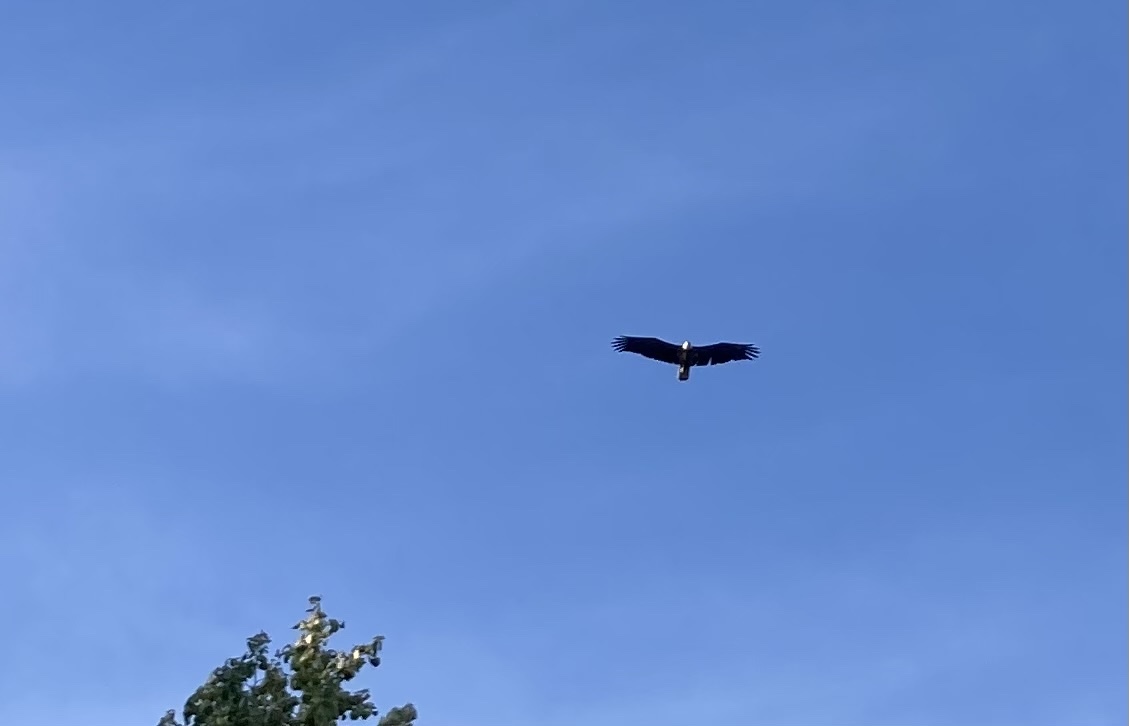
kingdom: Animalia
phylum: Chordata
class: Aves
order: Accipitriformes
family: Accipitridae
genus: Haliaeetus
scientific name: Haliaeetus leucocephalus
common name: Bald eagle
